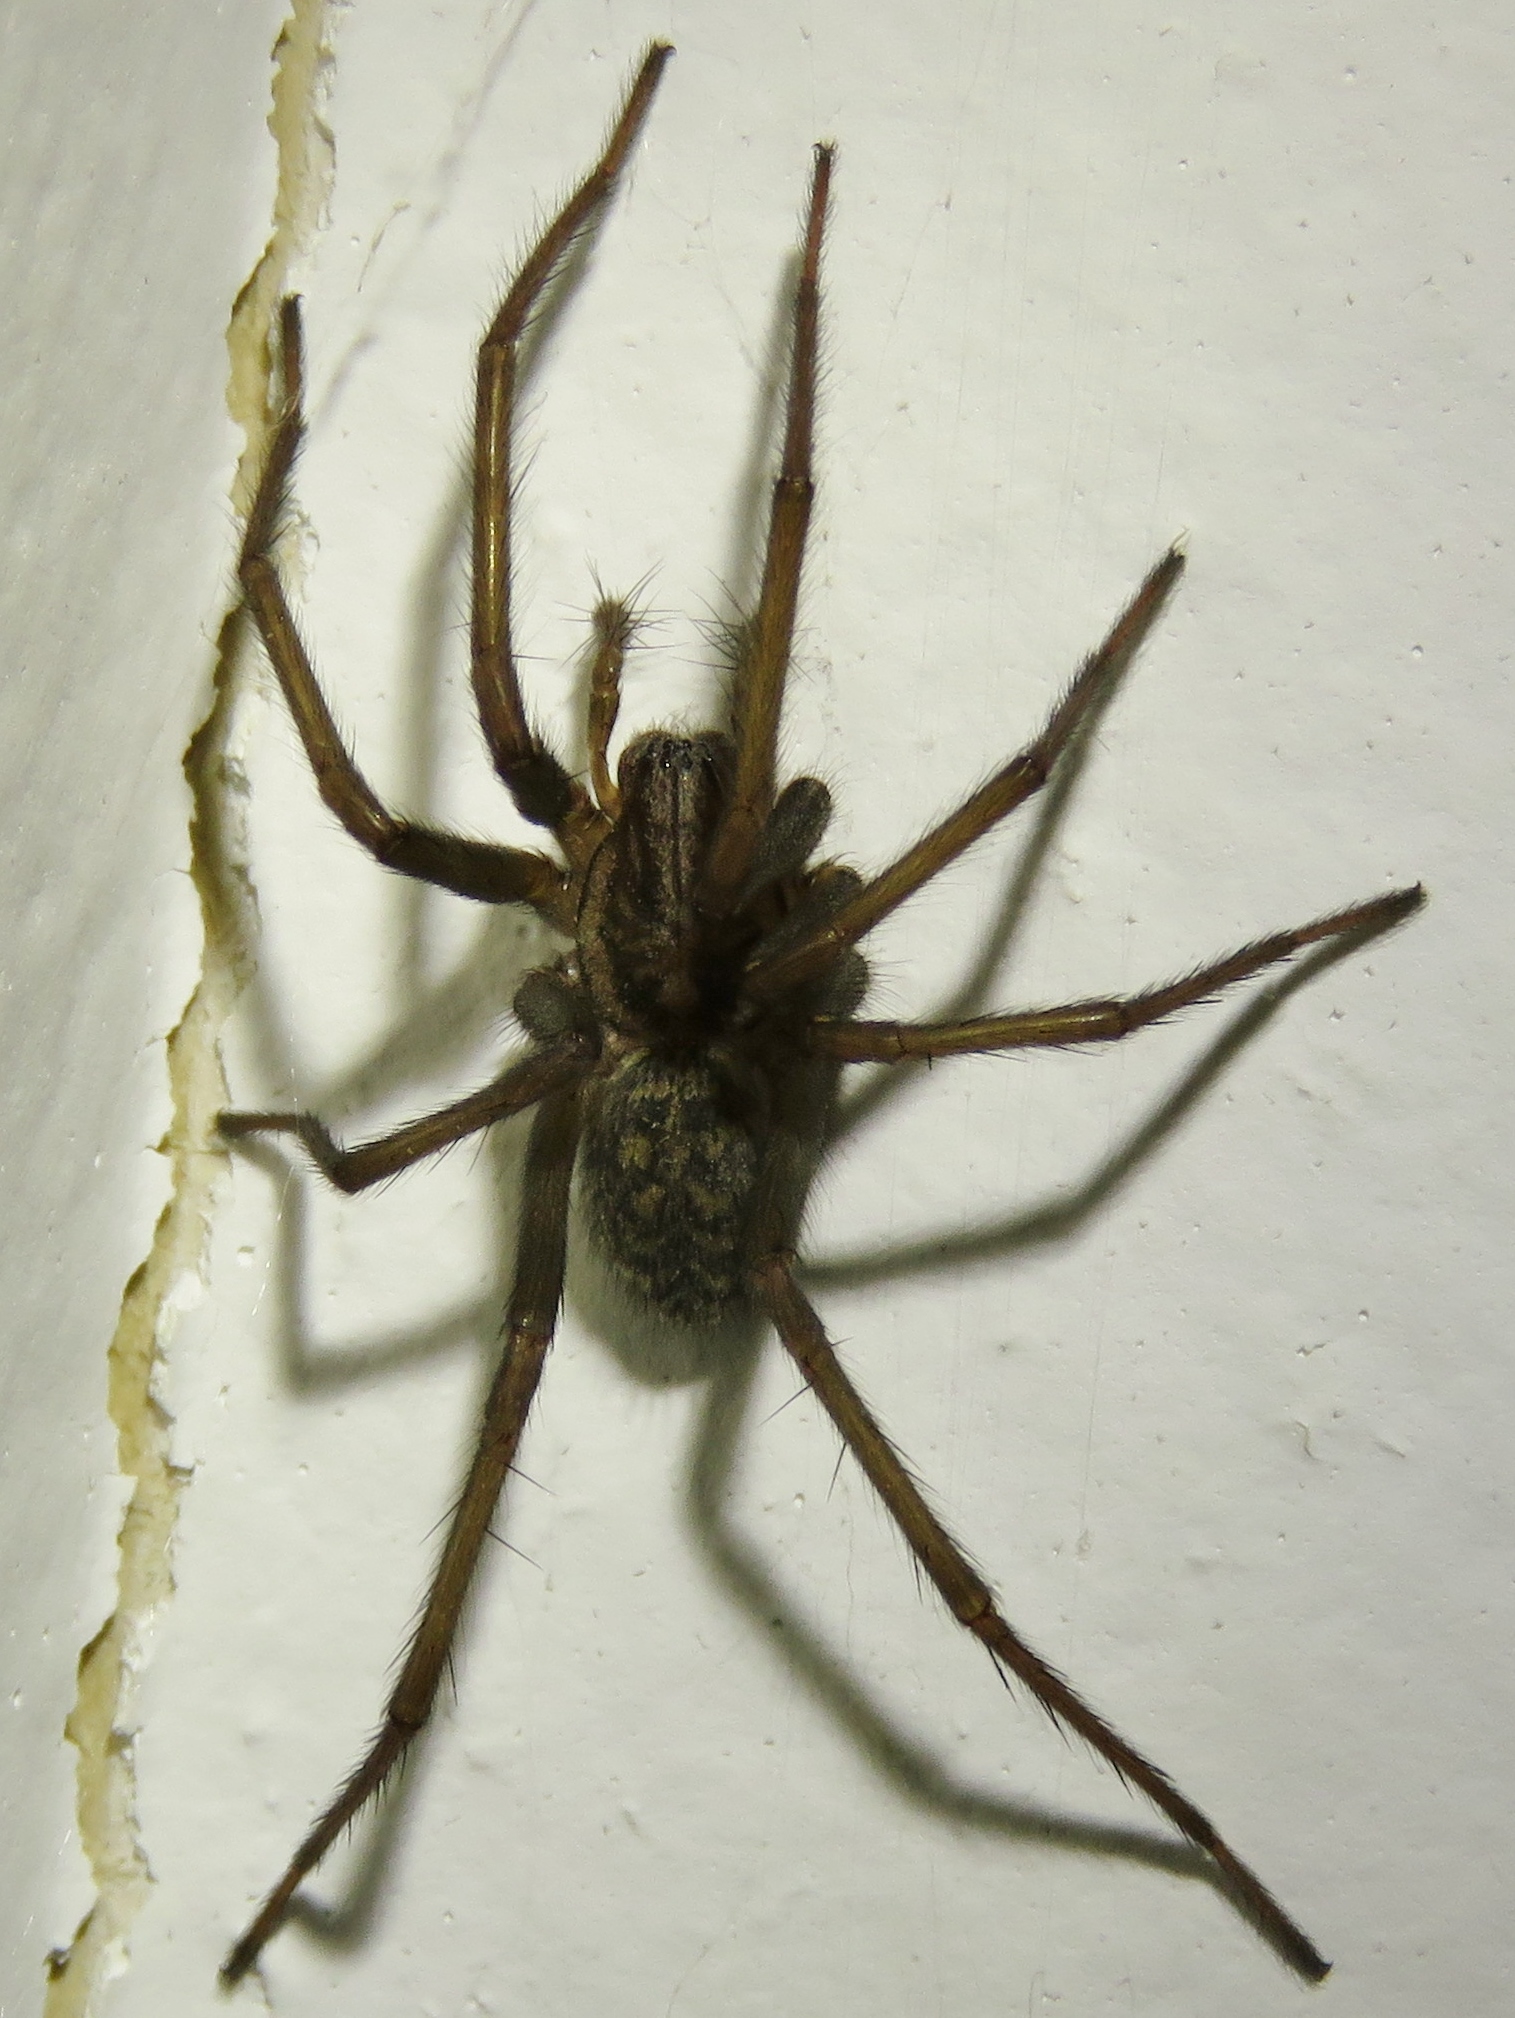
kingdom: Animalia
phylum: Arthropoda
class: Arachnida
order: Araneae
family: Agelenidae
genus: Eratigena
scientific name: Eratigena atrica
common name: Giant house spider
